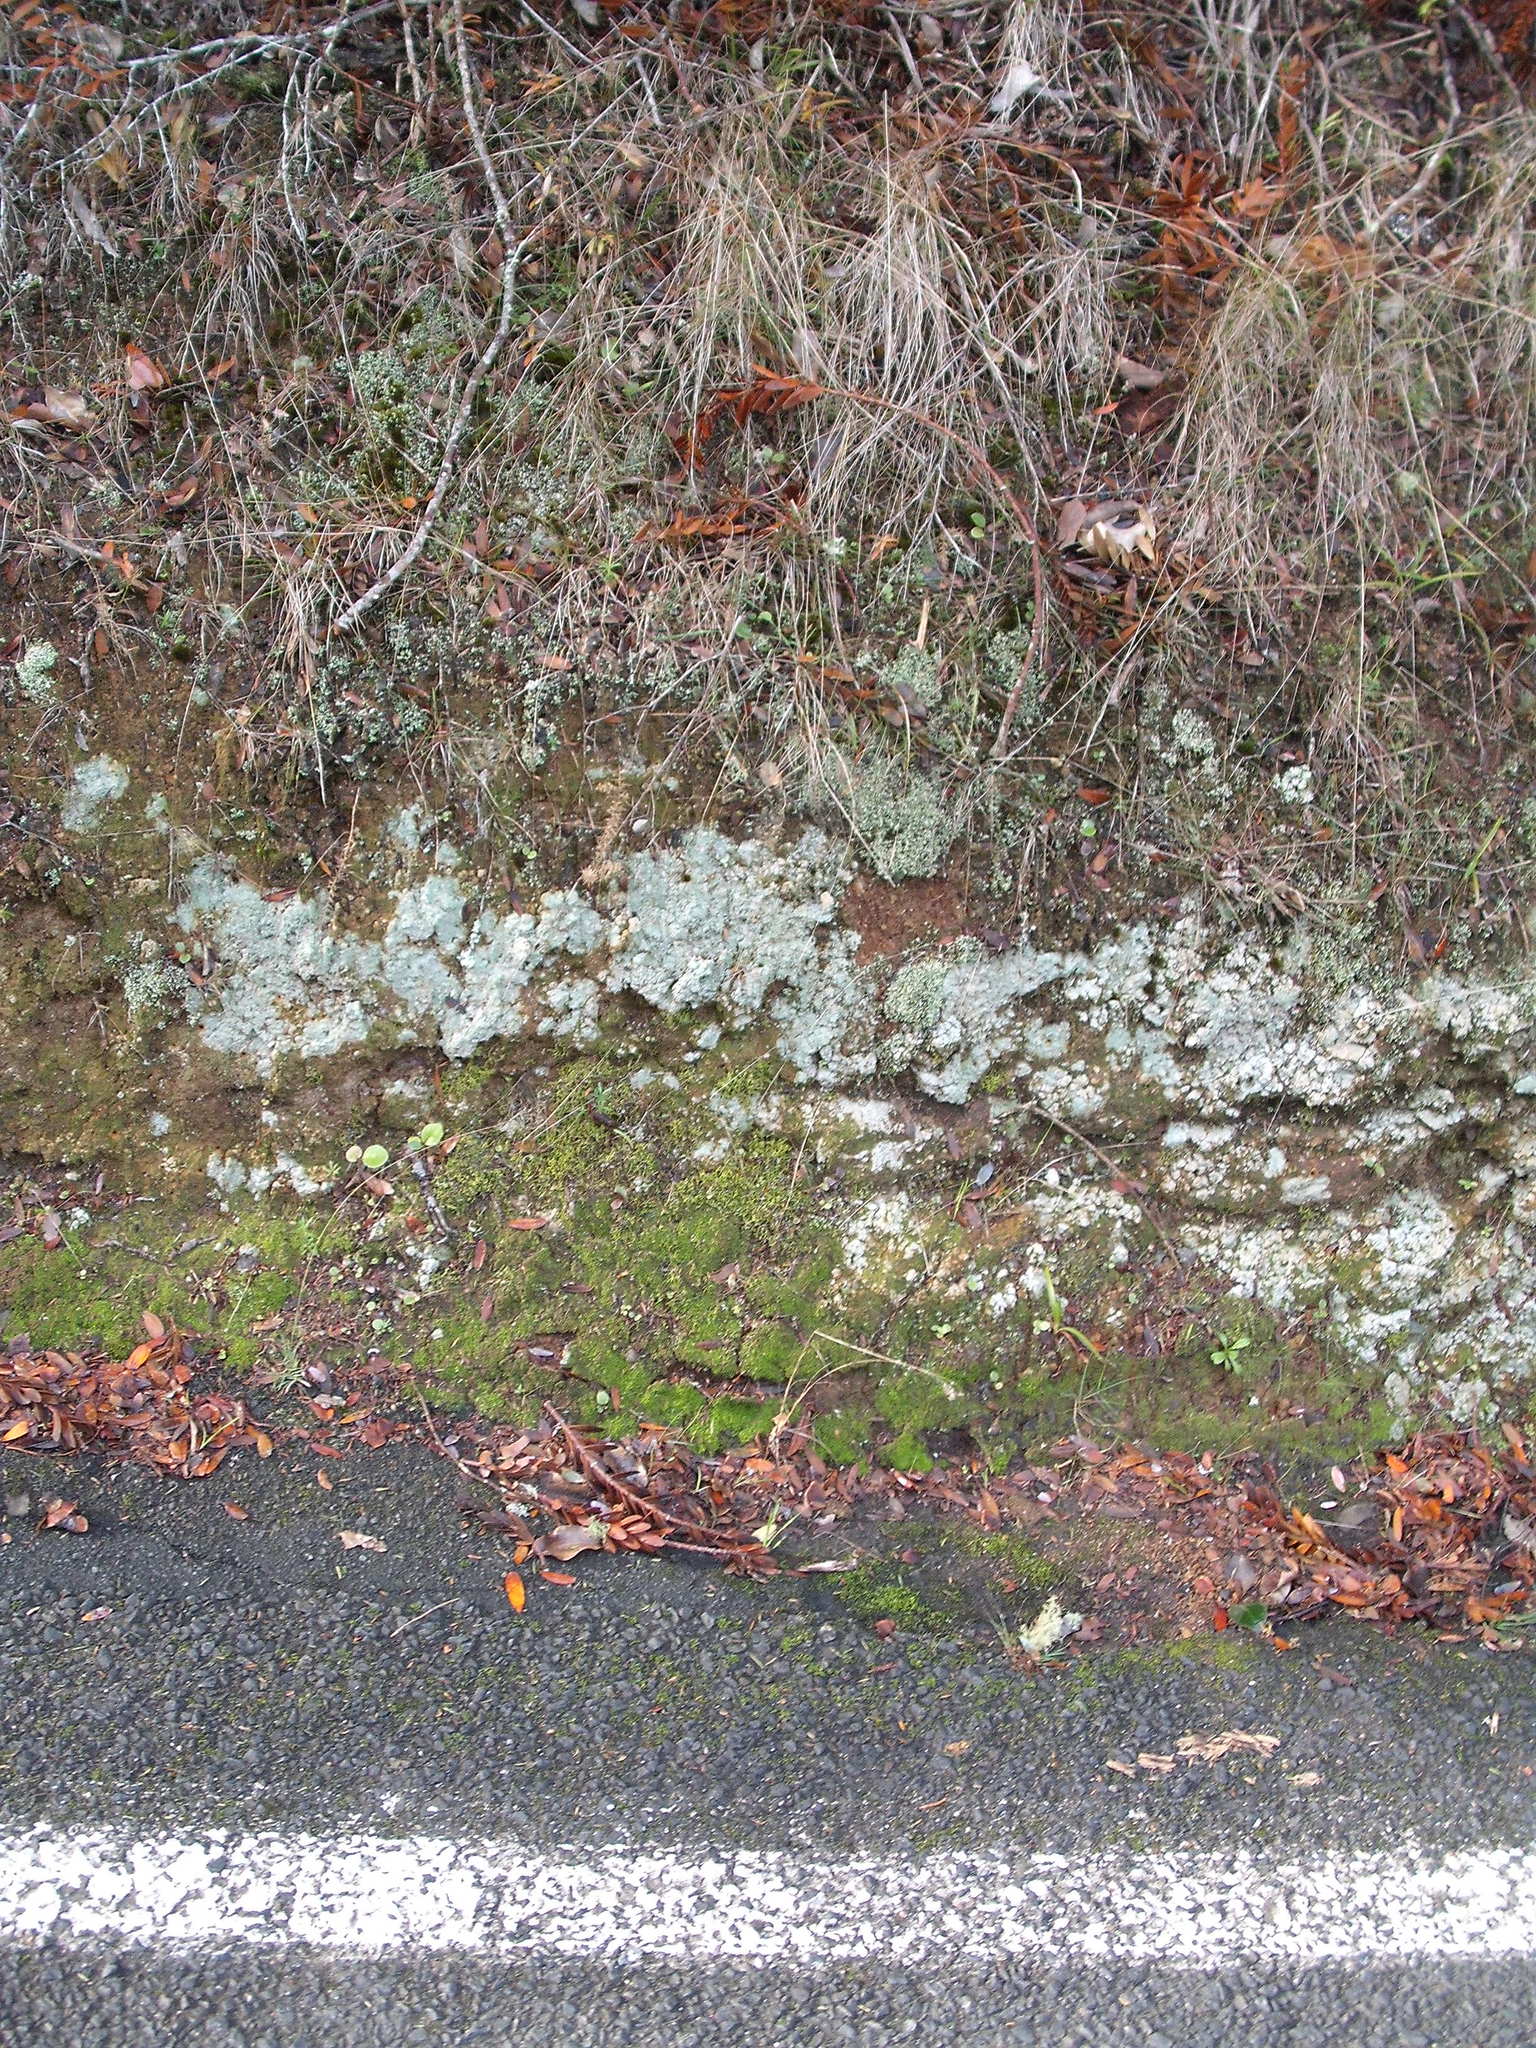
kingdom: Fungi
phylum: Ascomycota
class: Lecanoromycetes
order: Baeomycetales
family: Baeomycetaceae
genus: Baeomyces
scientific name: Baeomyces heteromorphus
